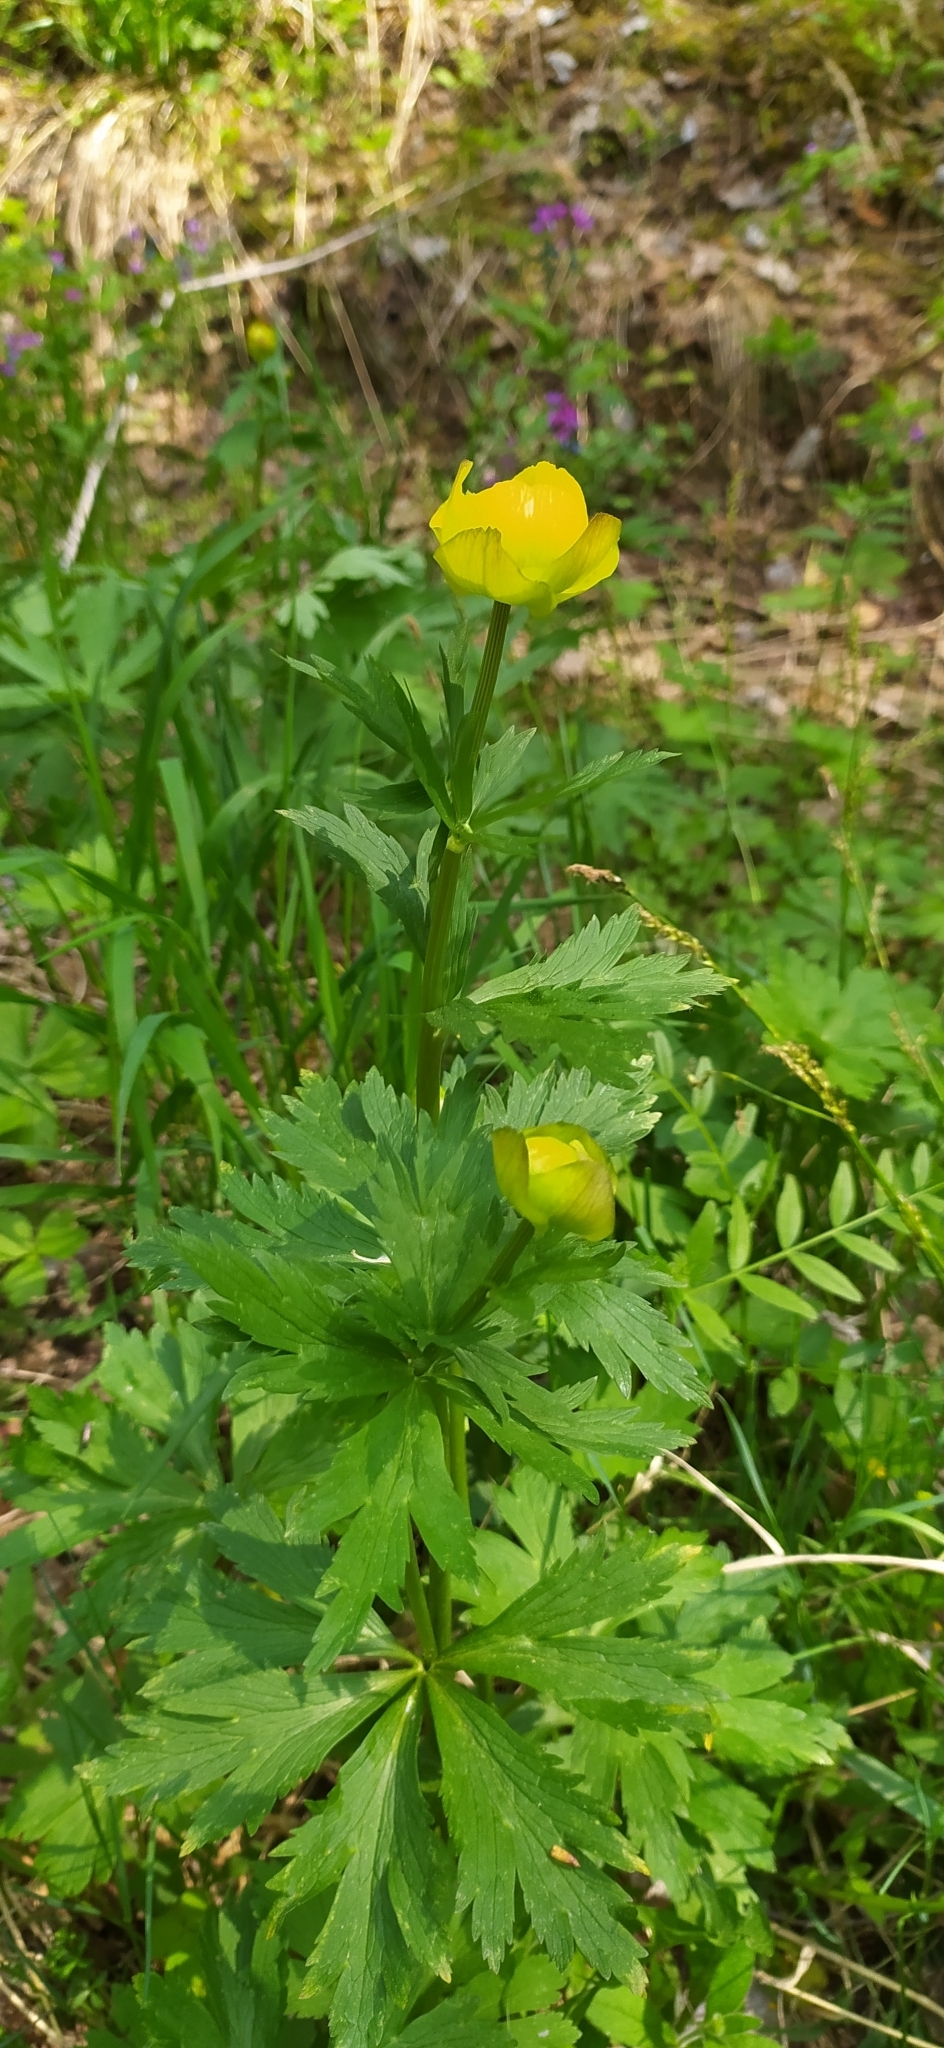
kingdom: Plantae
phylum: Tracheophyta
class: Magnoliopsida
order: Ranunculales
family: Ranunculaceae
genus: Trollius
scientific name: Trollius europaeus
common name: European globeflower
